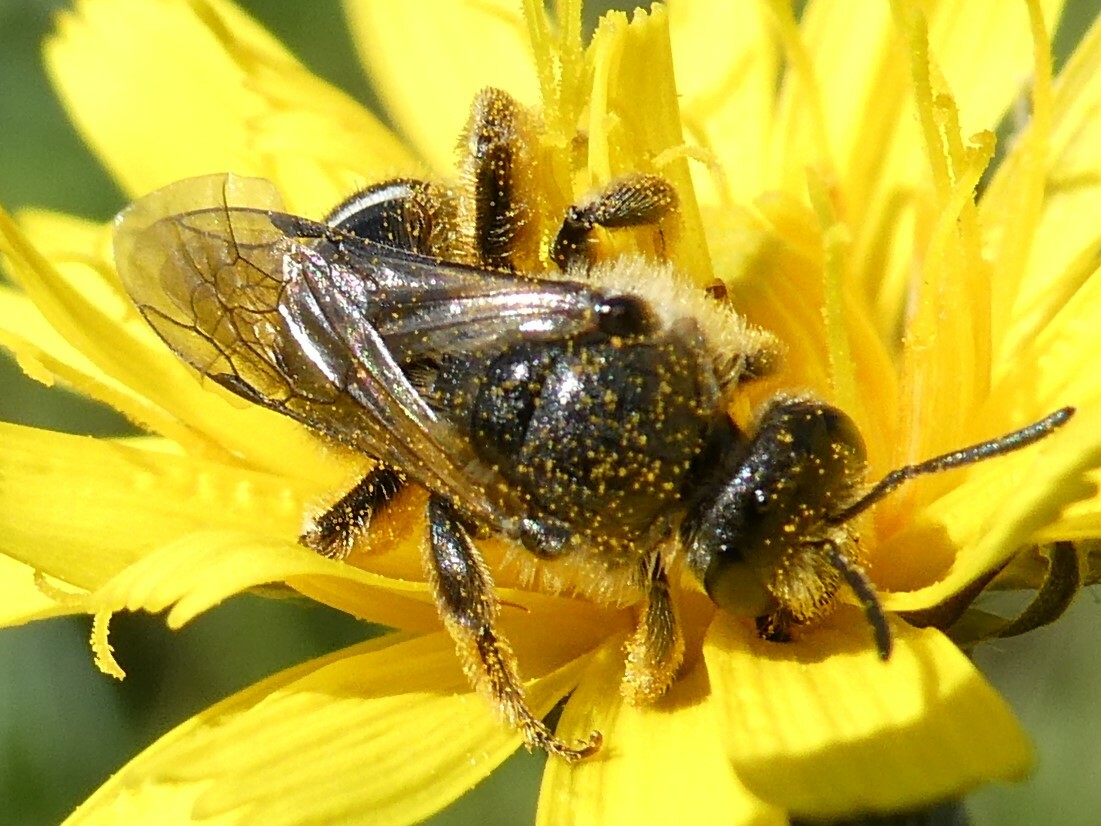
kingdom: Animalia
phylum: Arthropoda
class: Insecta
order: Hymenoptera
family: Halictidae
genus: Lasioglossum
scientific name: Lasioglossum leucozonium
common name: White-zoned furrow bee
